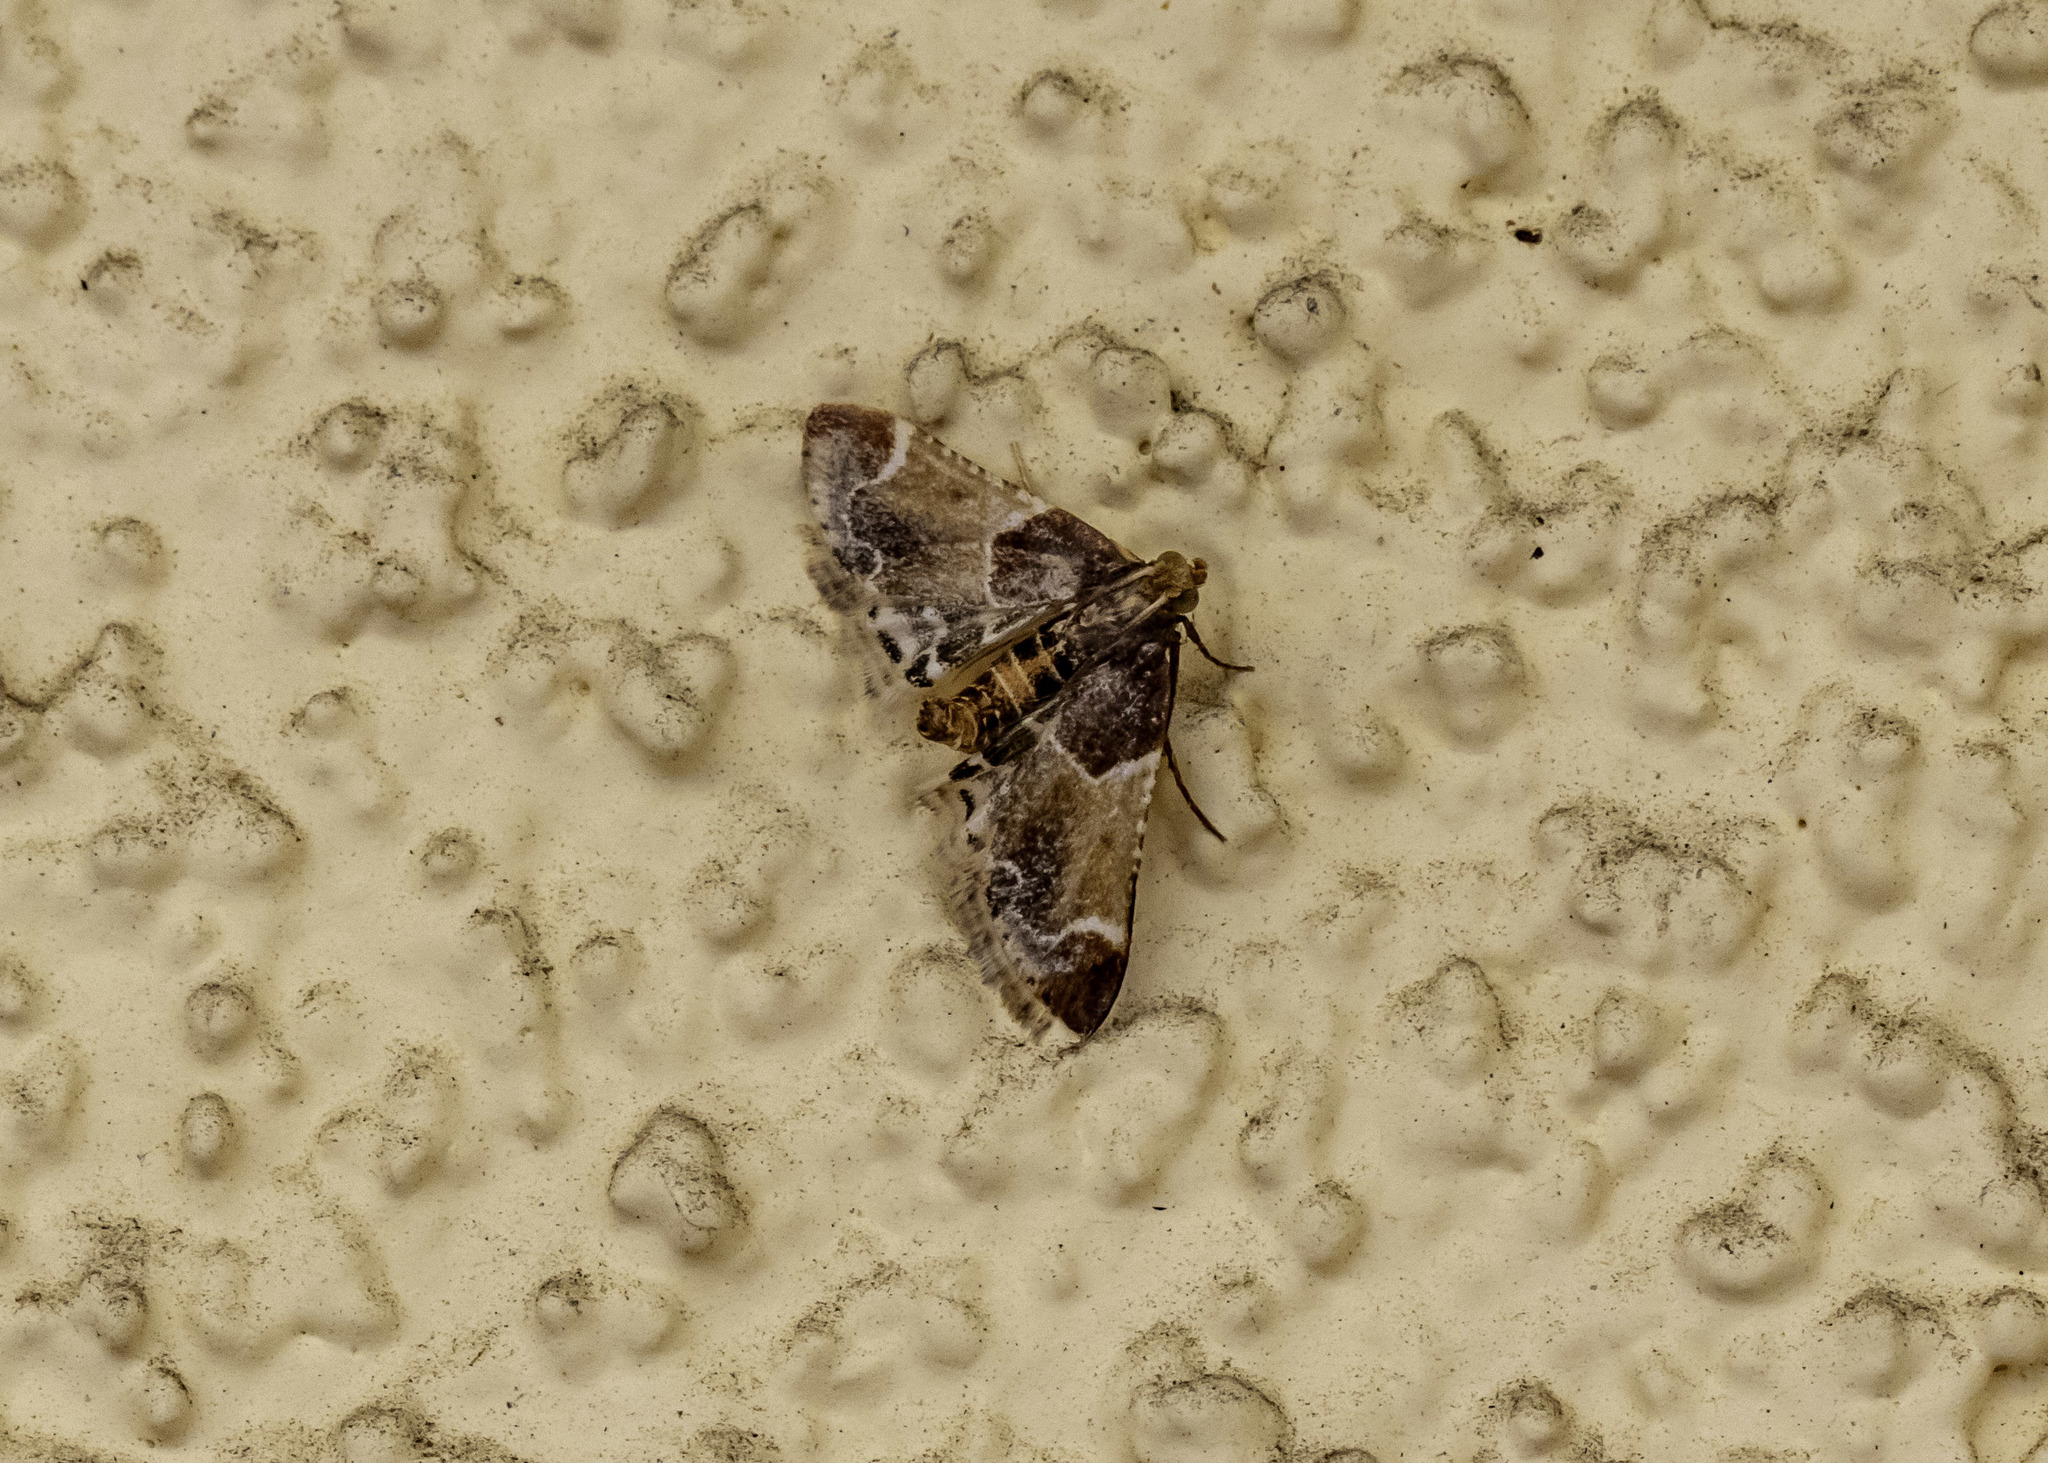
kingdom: Animalia
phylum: Arthropoda
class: Insecta
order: Lepidoptera
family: Pyralidae
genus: Pyralis
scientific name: Pyralis farinalis
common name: Meal moth
